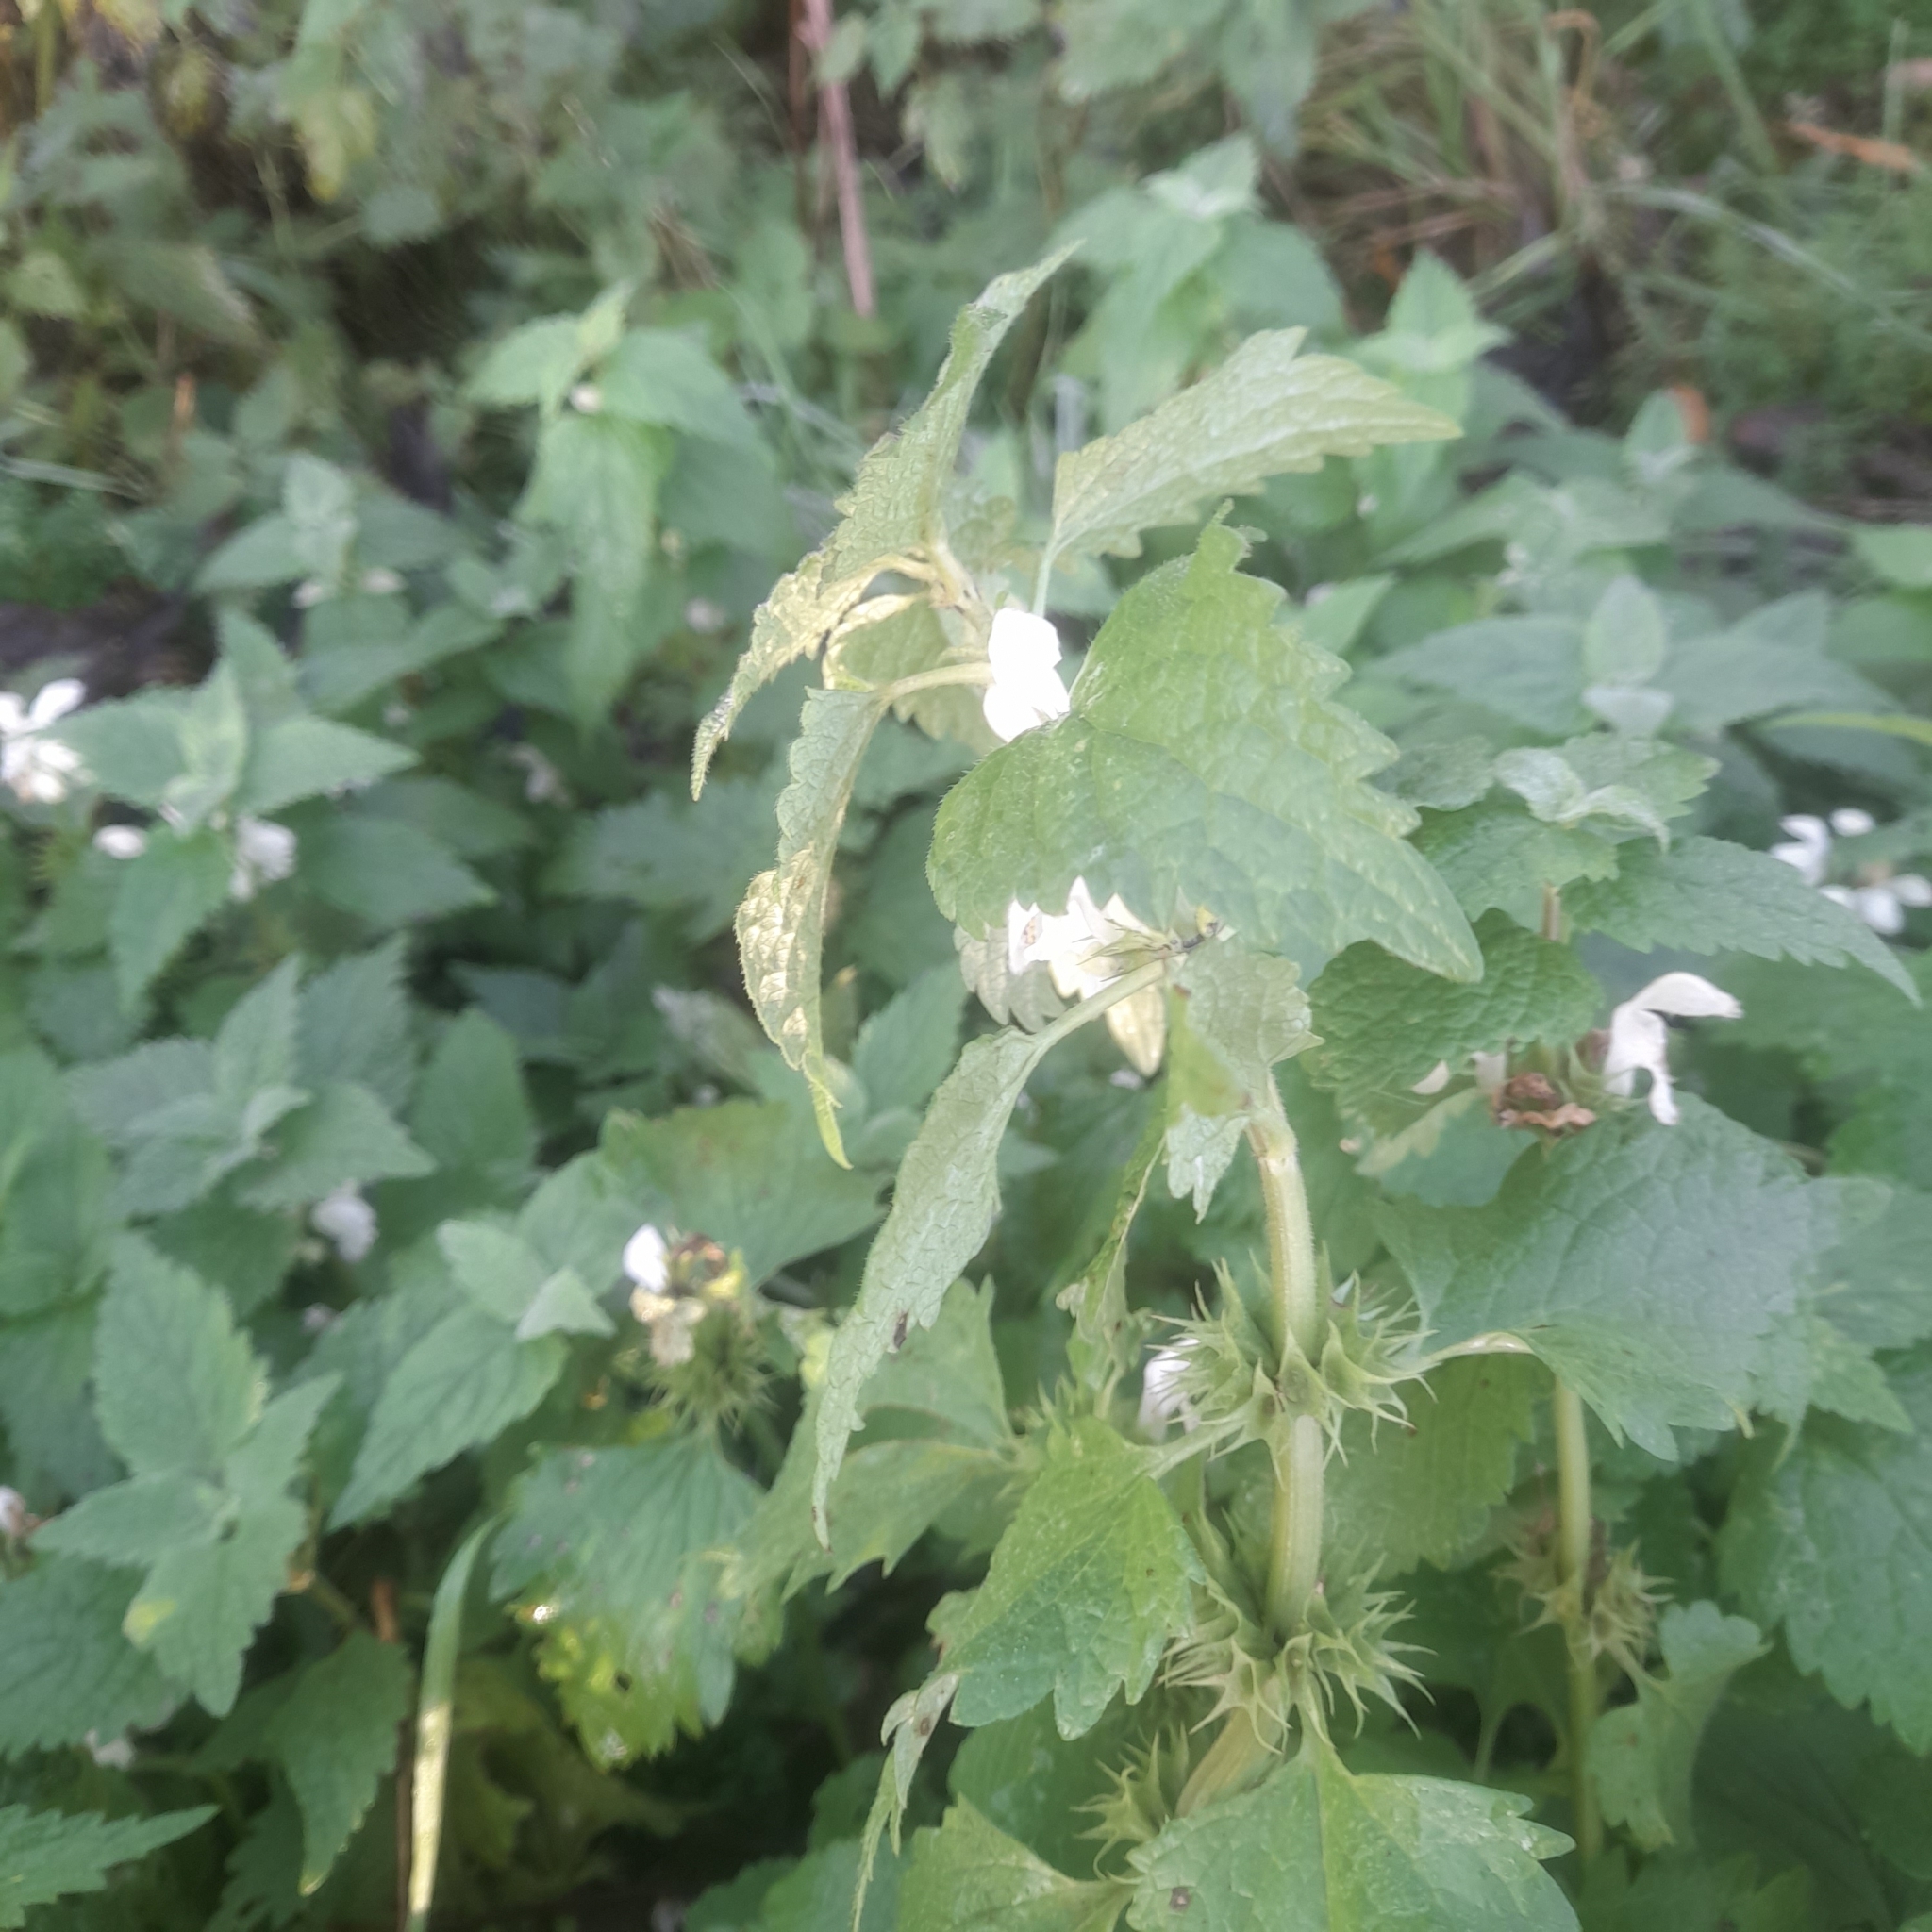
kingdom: Plantae
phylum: Tracheophyta
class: Magnoliopsida
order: Lamiales
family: Lamiaceae
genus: Lamium
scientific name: Lamium album
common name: White dead-nettle
